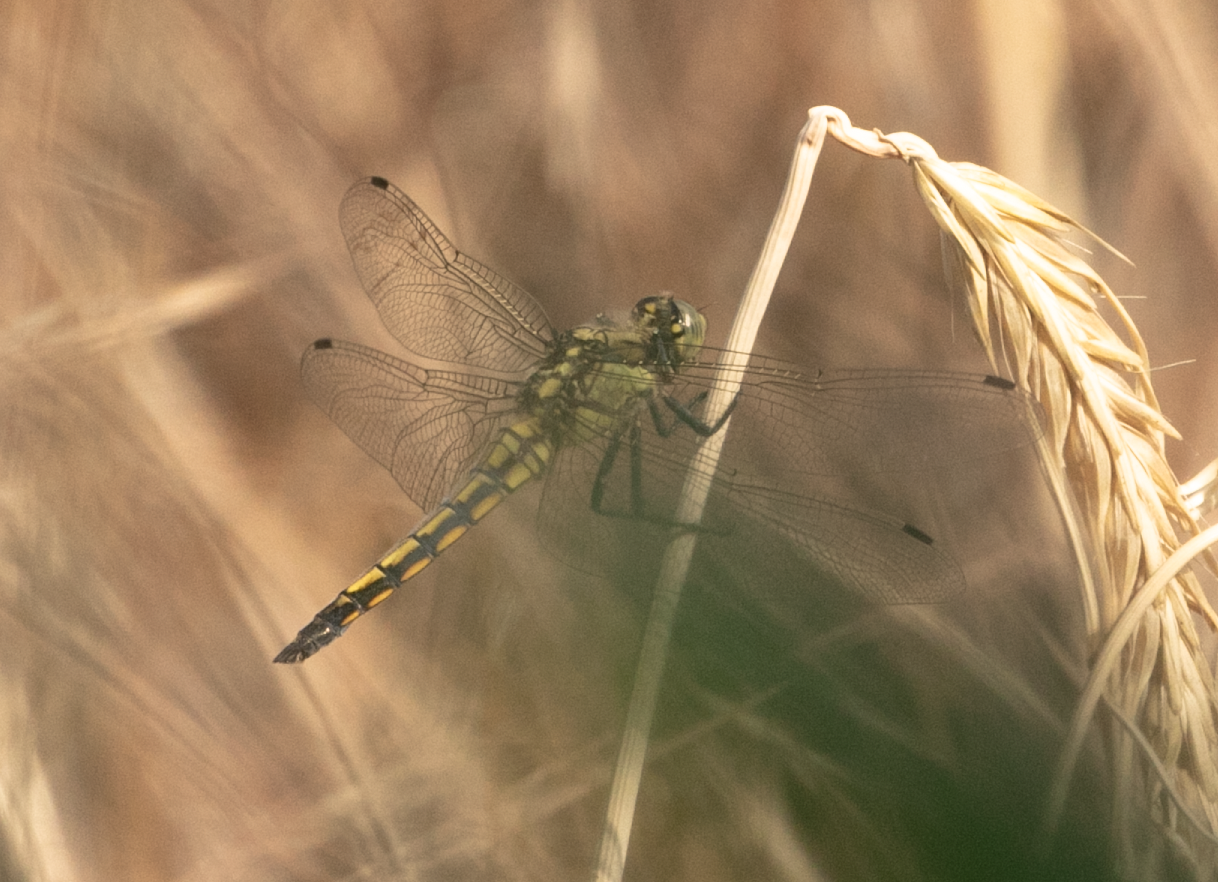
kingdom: Animalia
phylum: Arthropoda
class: Insecta
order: Odonata
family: Libellulidae
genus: Orthetrum
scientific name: Orthetrum cancellatum
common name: Black-tailed skimmer
